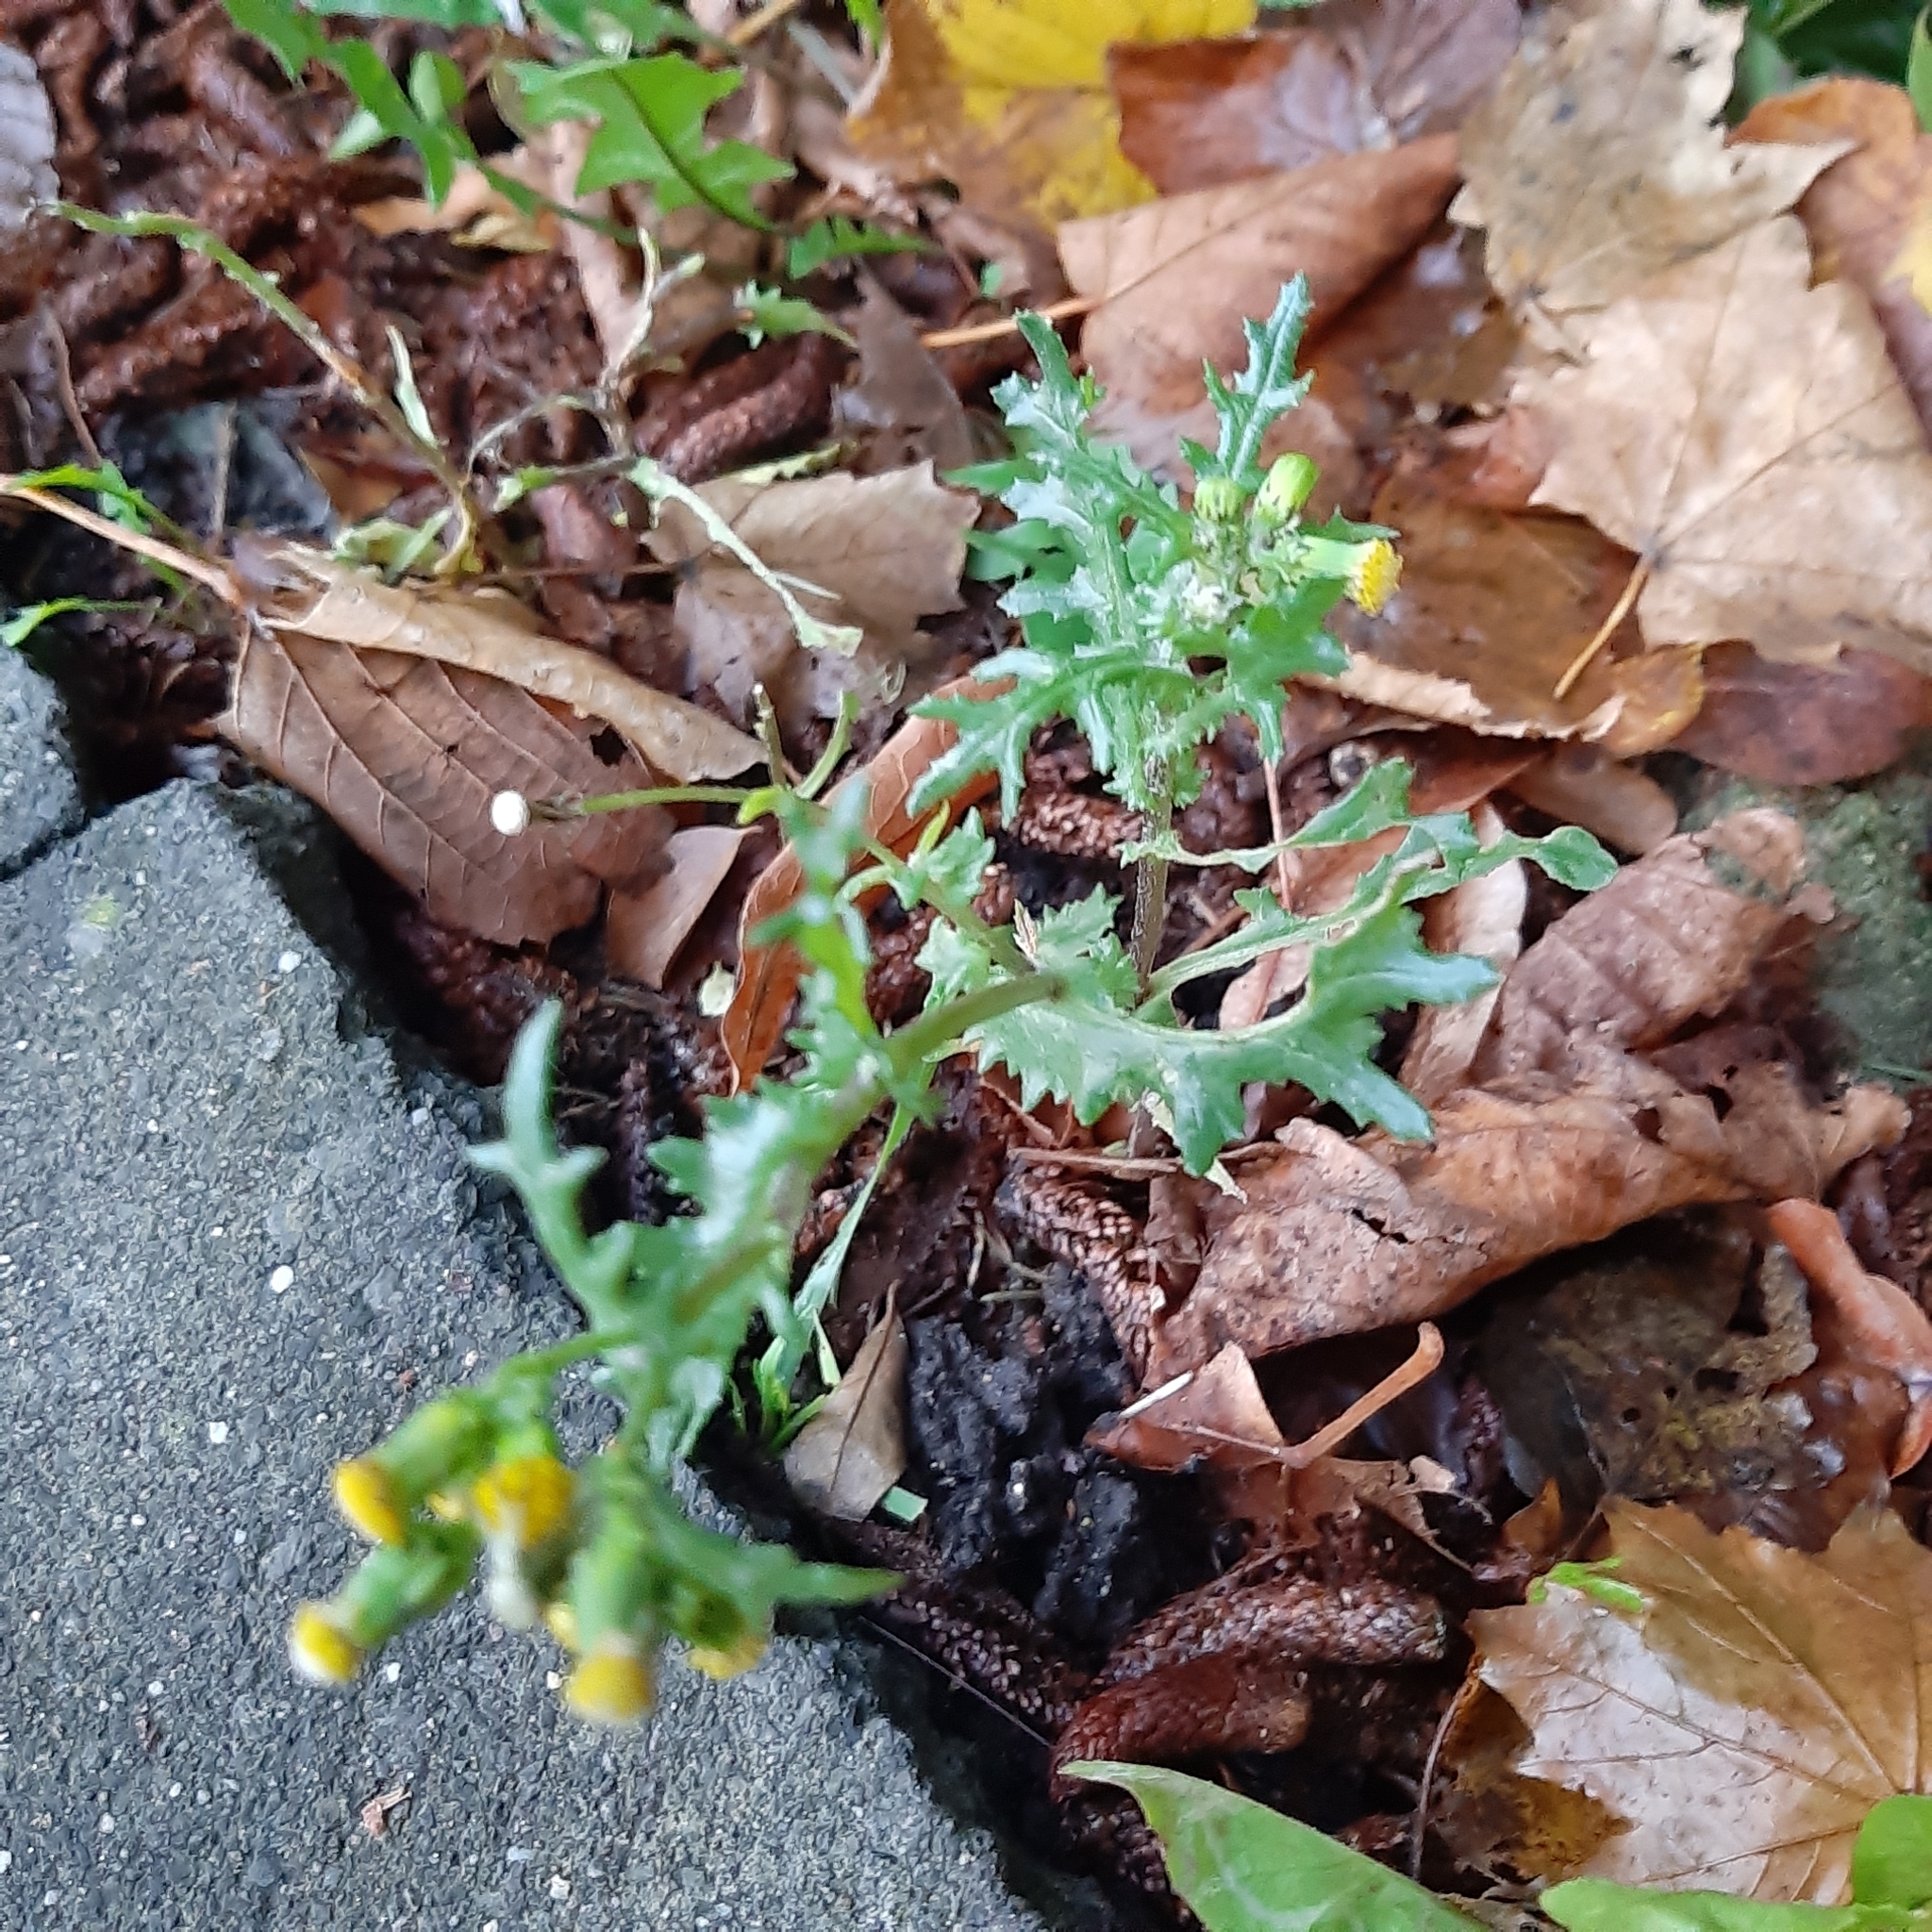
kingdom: Plantae
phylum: Tracheophyta
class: Magnoliopsida
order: Asterales
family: Asteraceae
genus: Senecio
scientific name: Senecio vulgaris
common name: Old-man-in-the-spring
